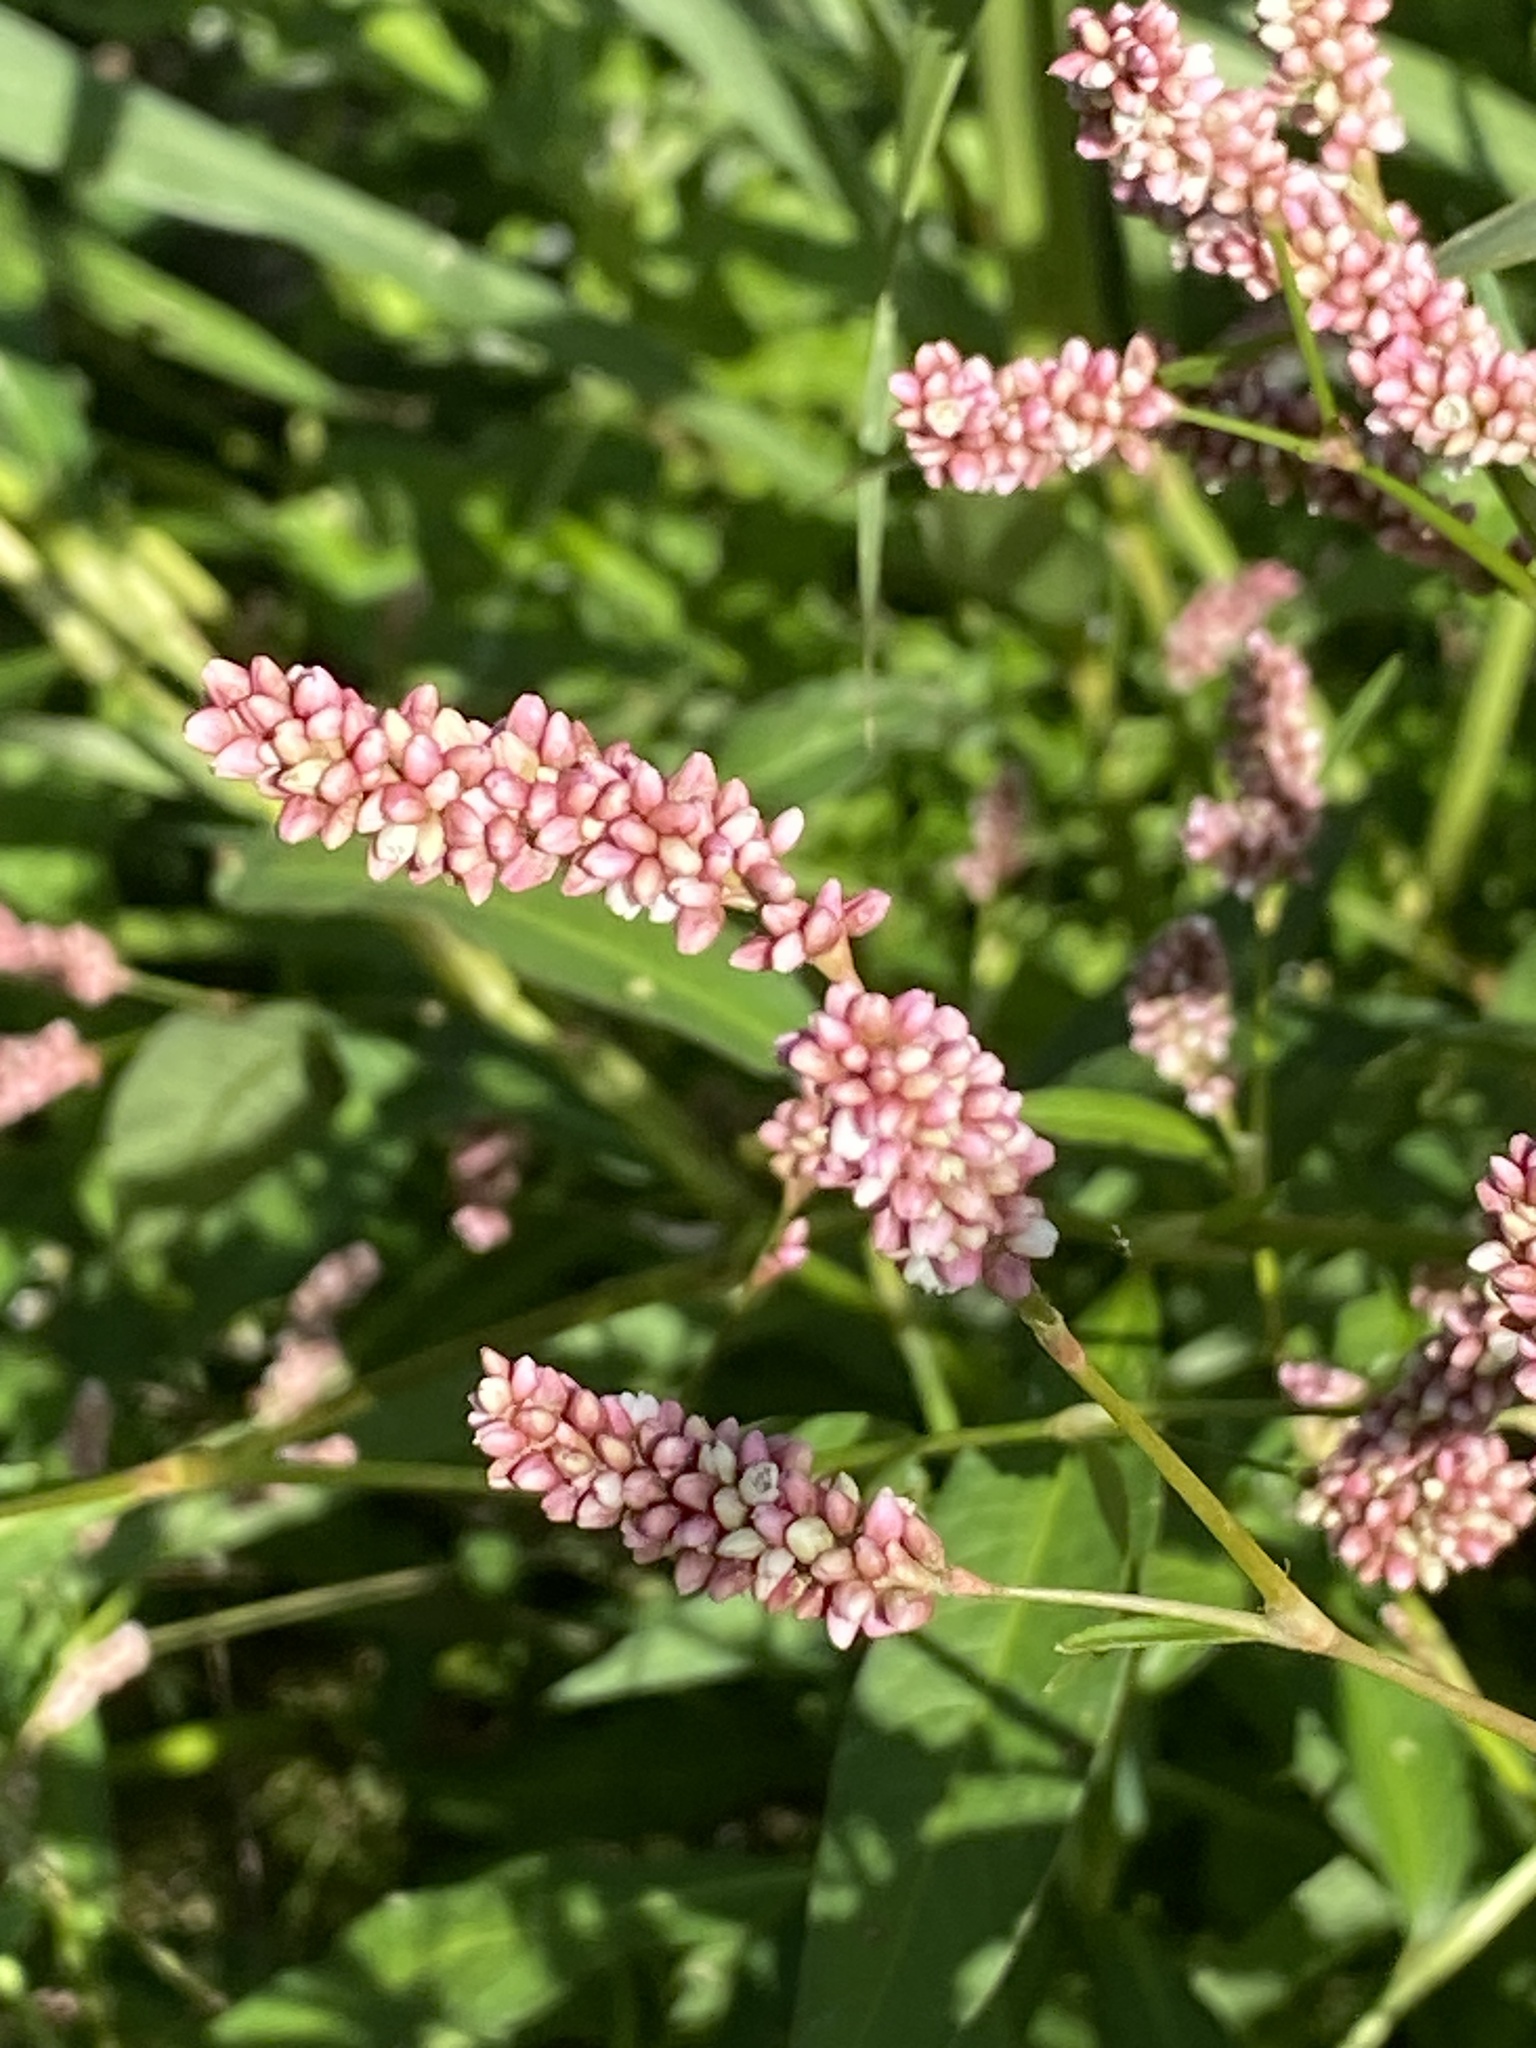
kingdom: Plantae
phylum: Tracheophyta
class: Magnoliopsida
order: Caryophyllales
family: Polygonaceae
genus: Persicaria
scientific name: Persicaria maculosa
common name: Redshank
